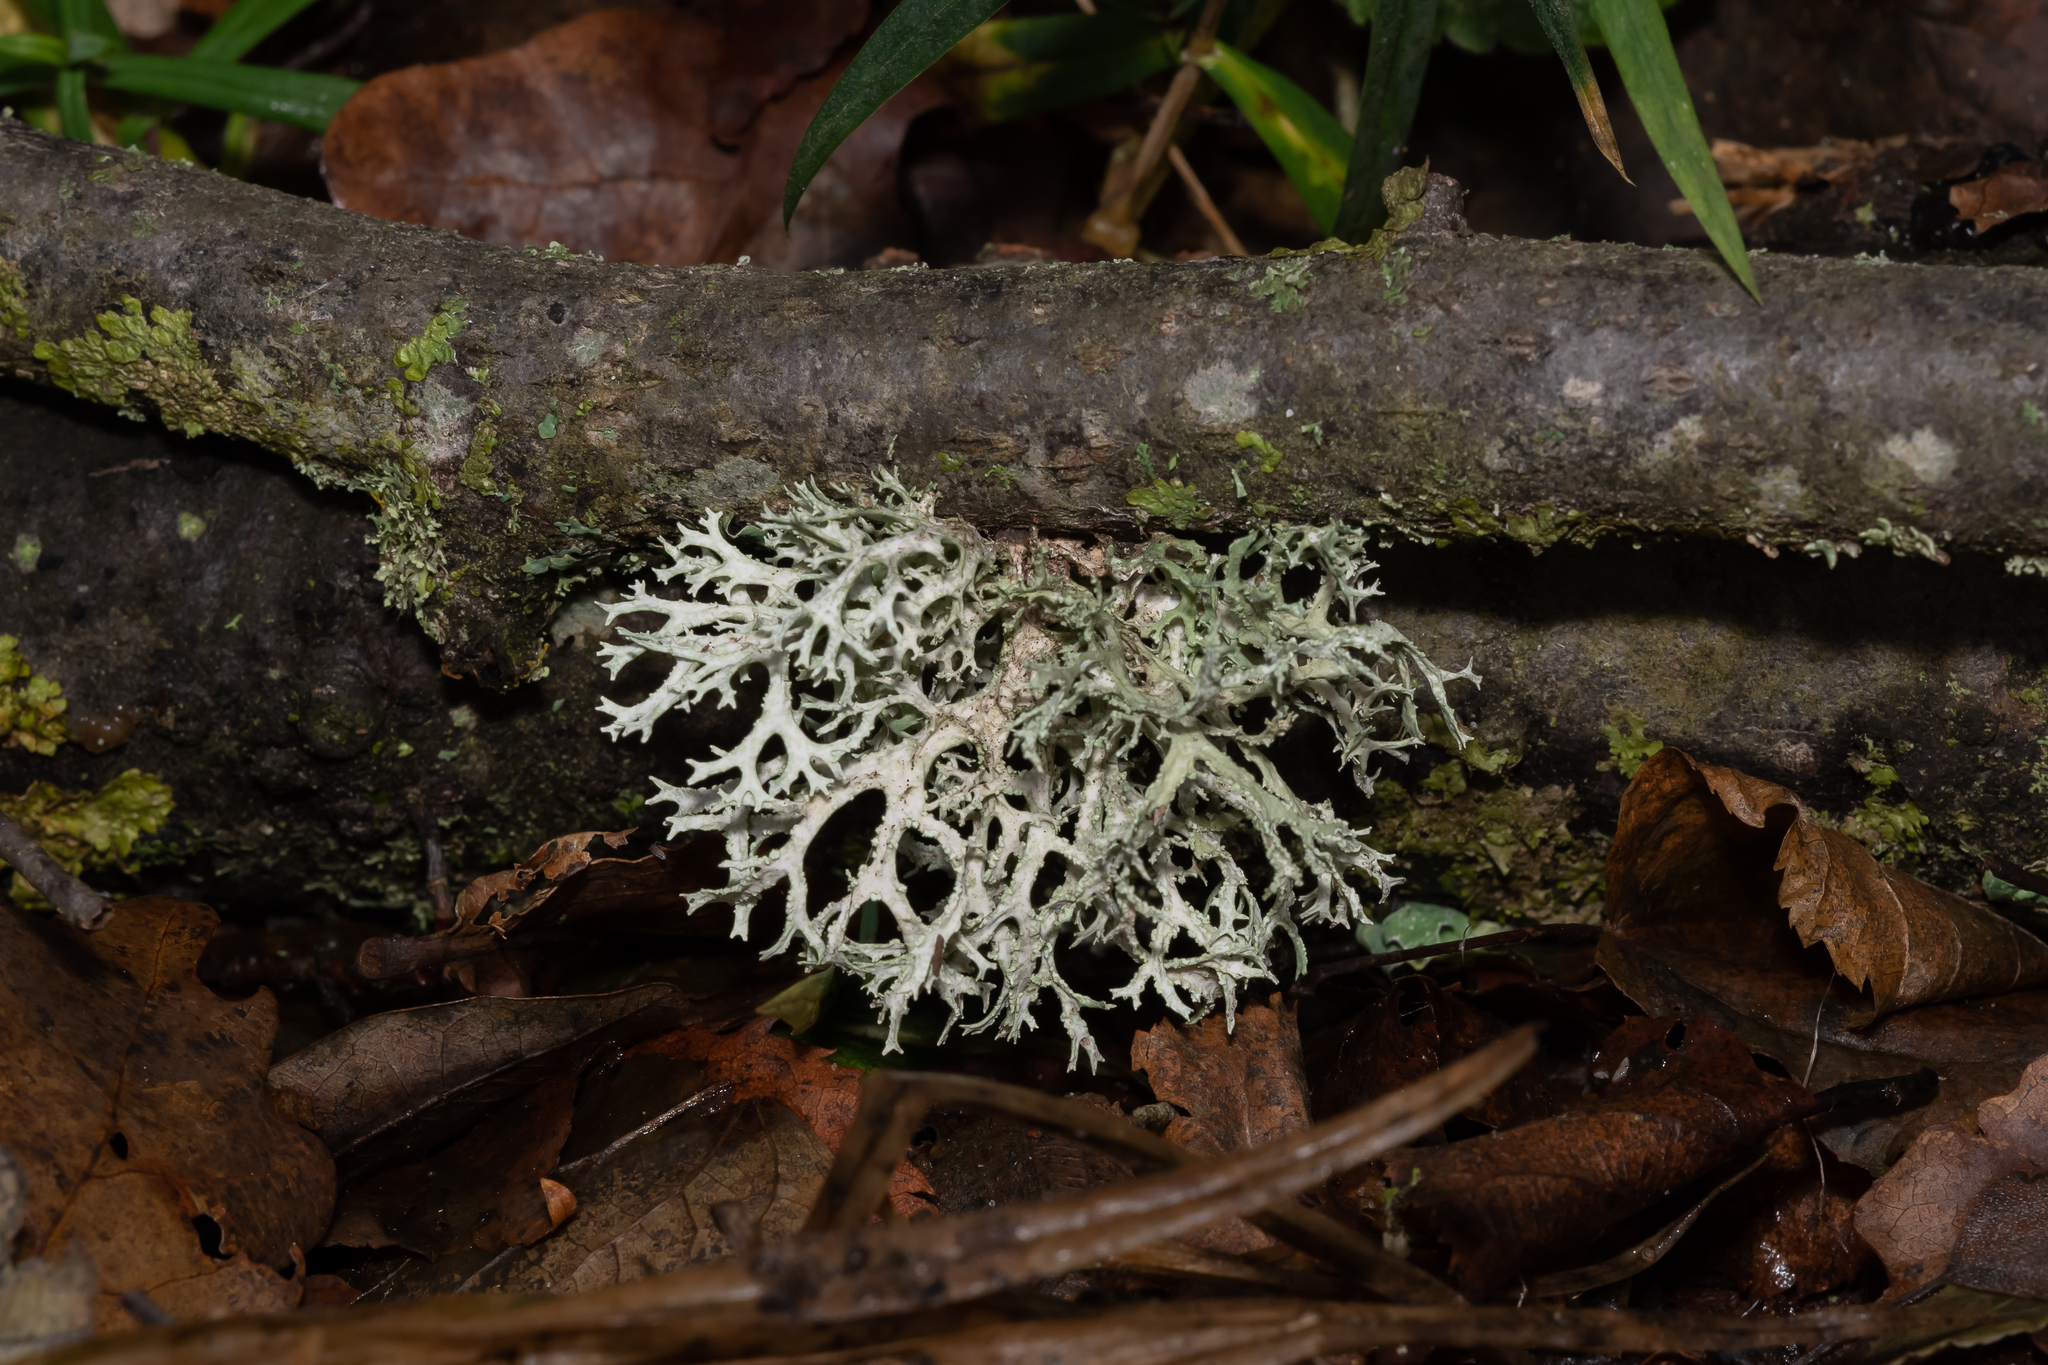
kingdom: Fungi
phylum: Ascomycota
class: Lecanoromycetes
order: Lecanorales
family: Parmeliaceae
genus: Evernia
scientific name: Evernia prunastri
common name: Oak moss
